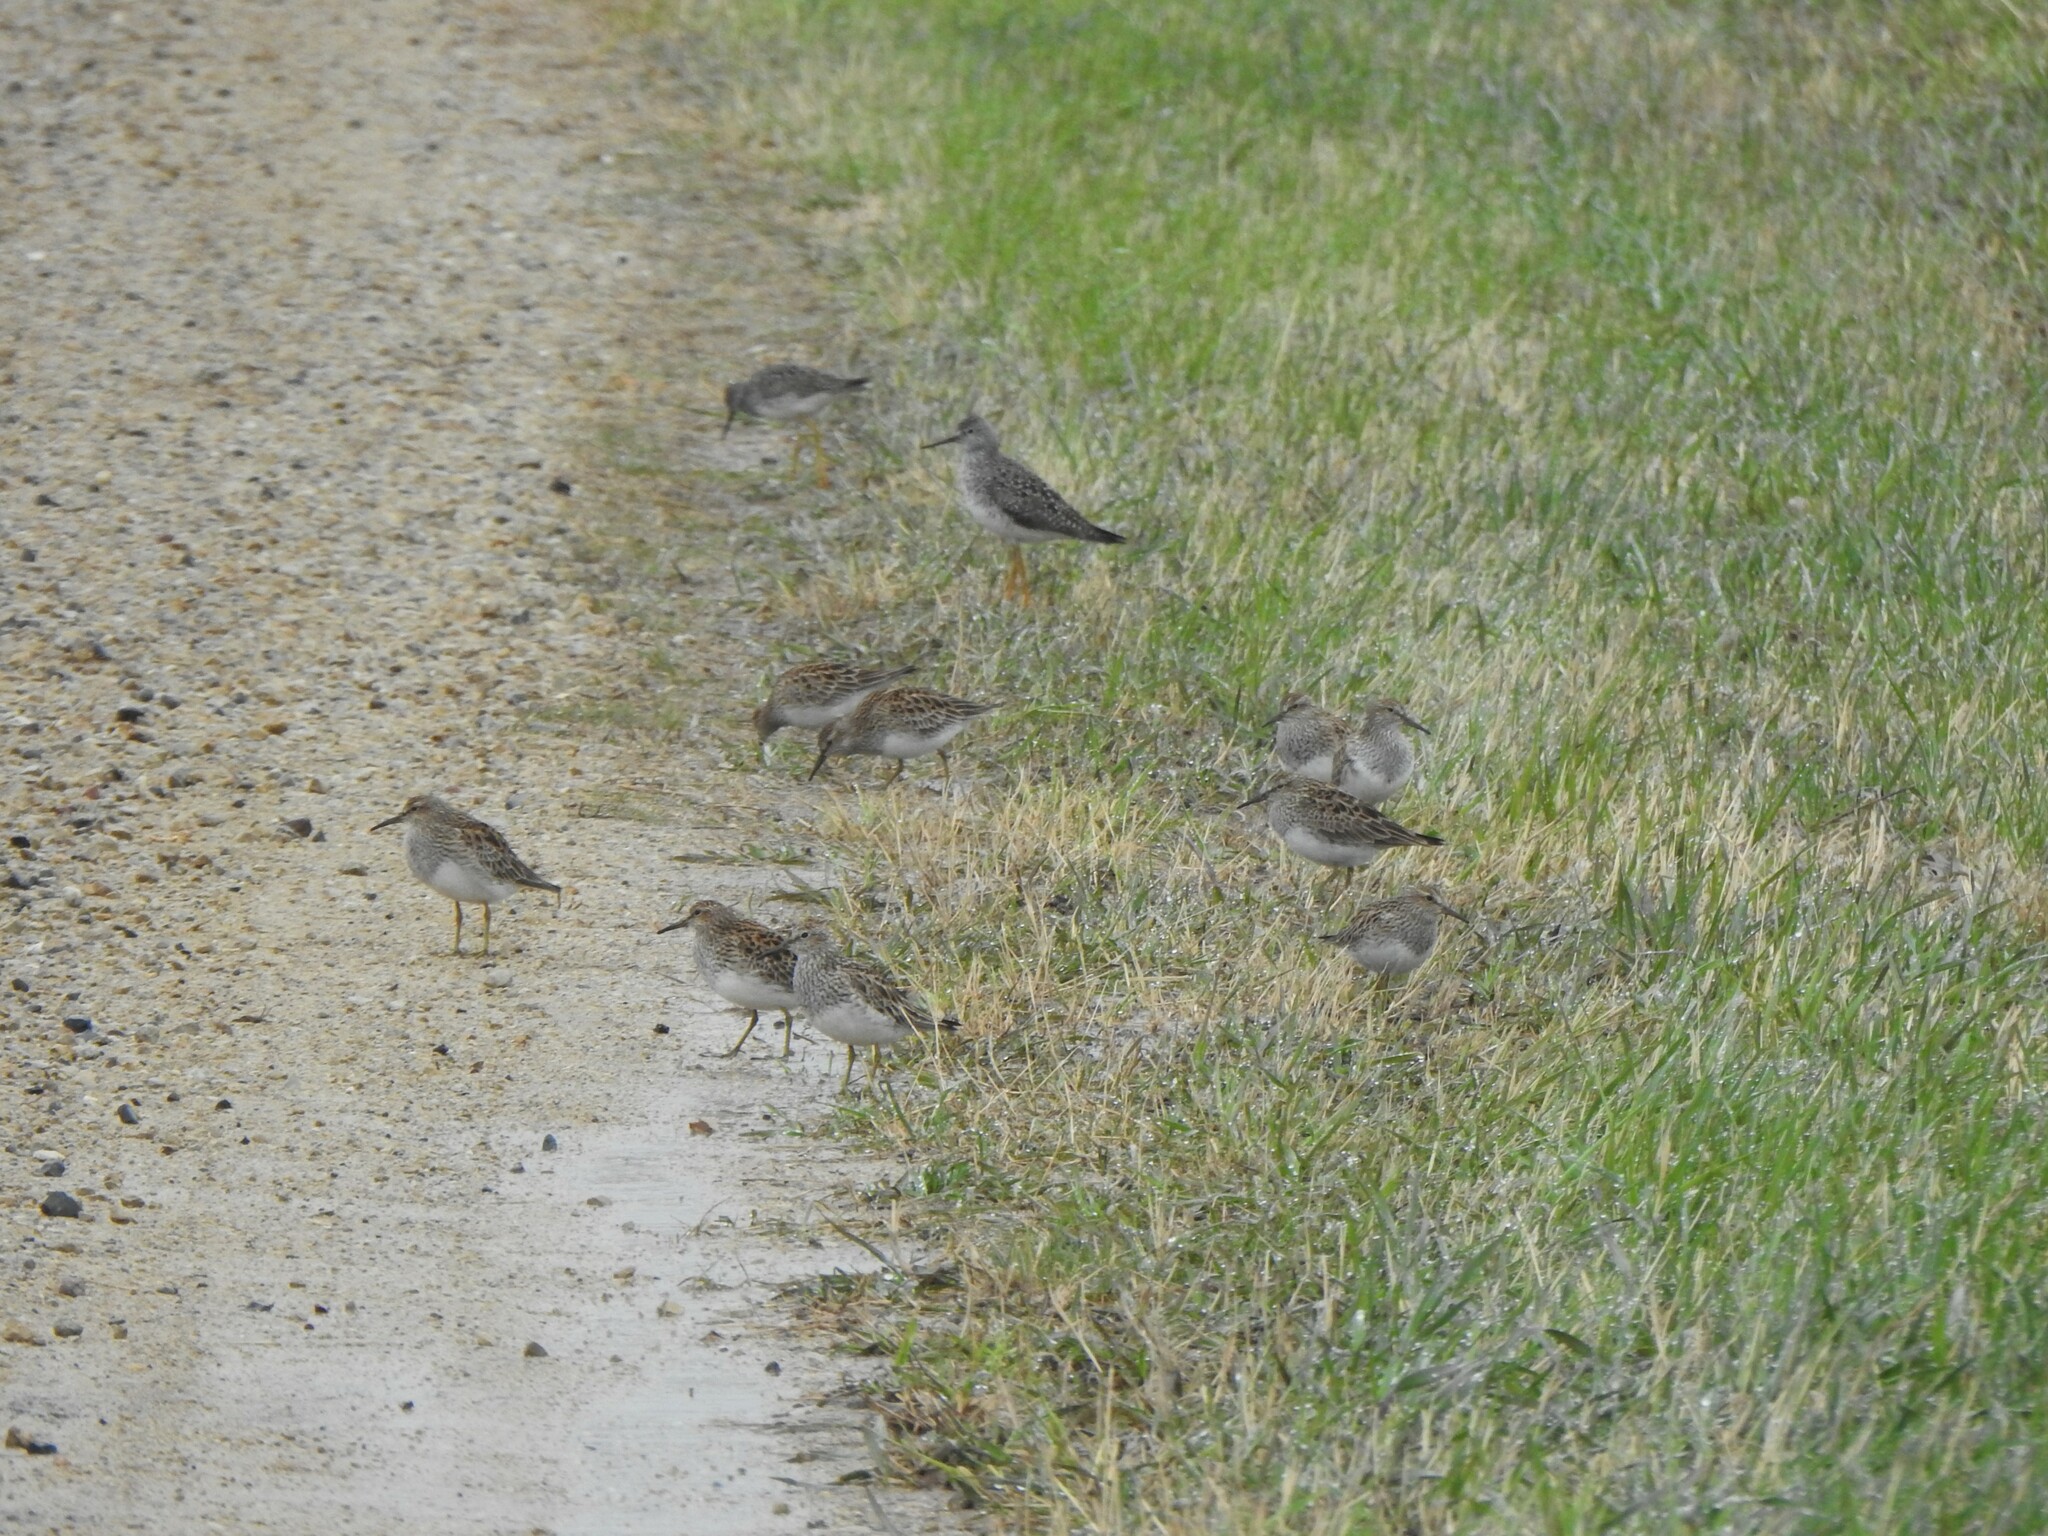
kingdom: Animalia
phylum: Chordata
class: Aves
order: Charadriiformes
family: Scolopacidae
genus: Calidris
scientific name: Calidris melanotos
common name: Pectoral sandpiper
